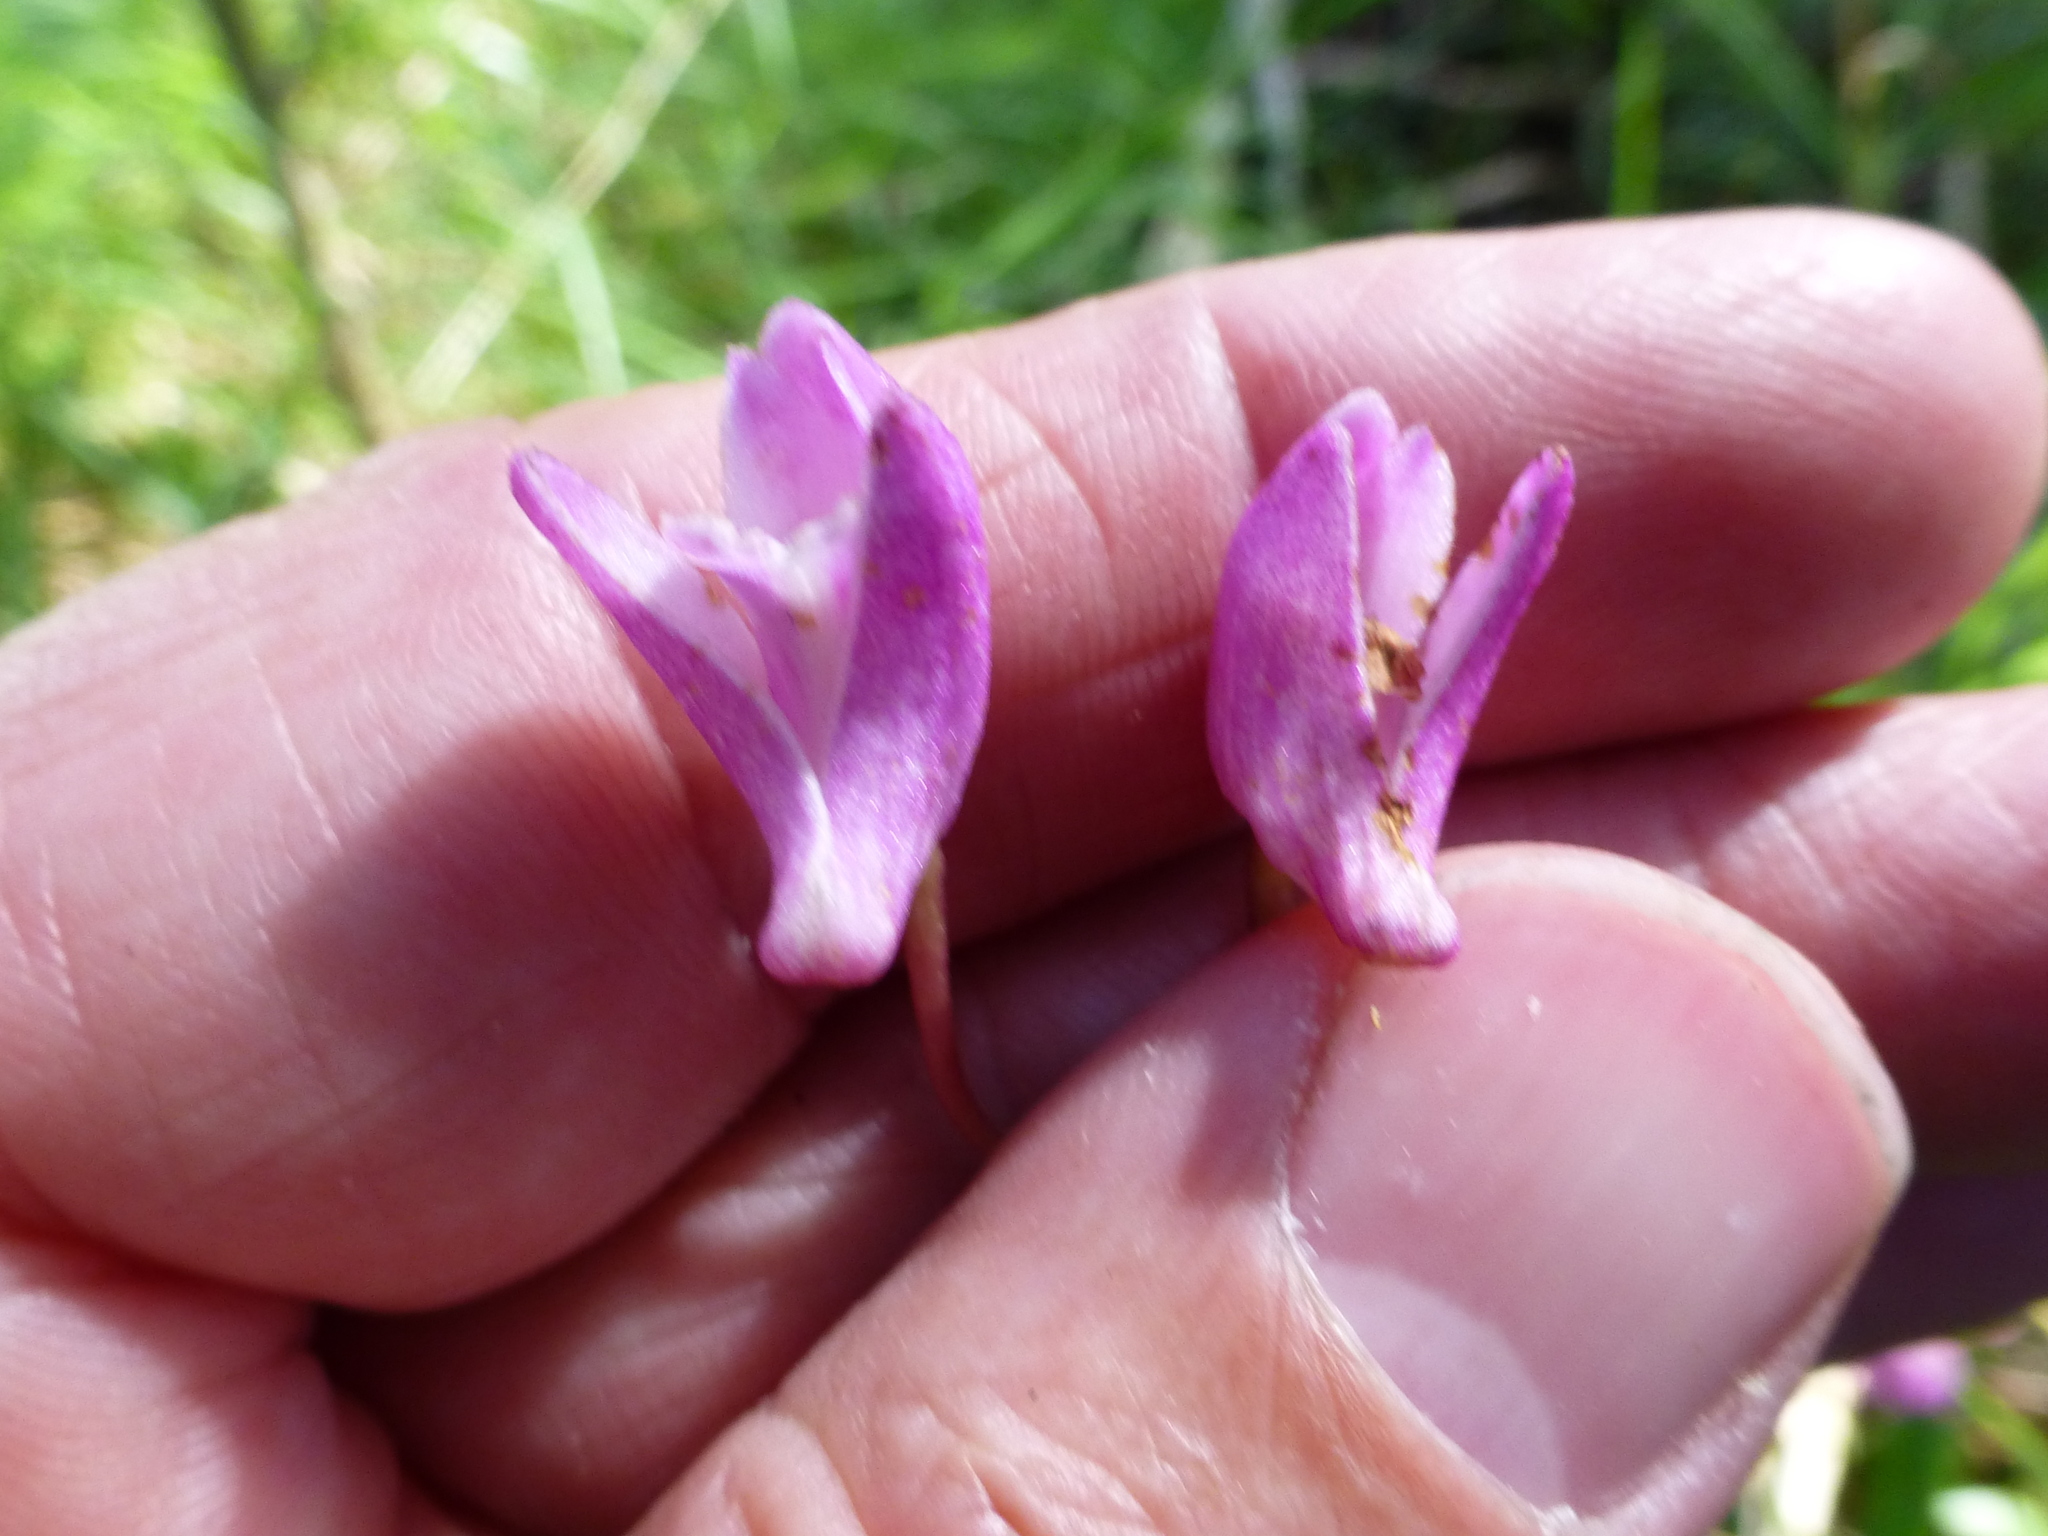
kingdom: Plantae
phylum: Tracheophyta
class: Liliopsida
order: Asparagales
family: Orchidaceae
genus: Dendrobium
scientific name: Dendrobium kingianum
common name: Pink rock orchid
